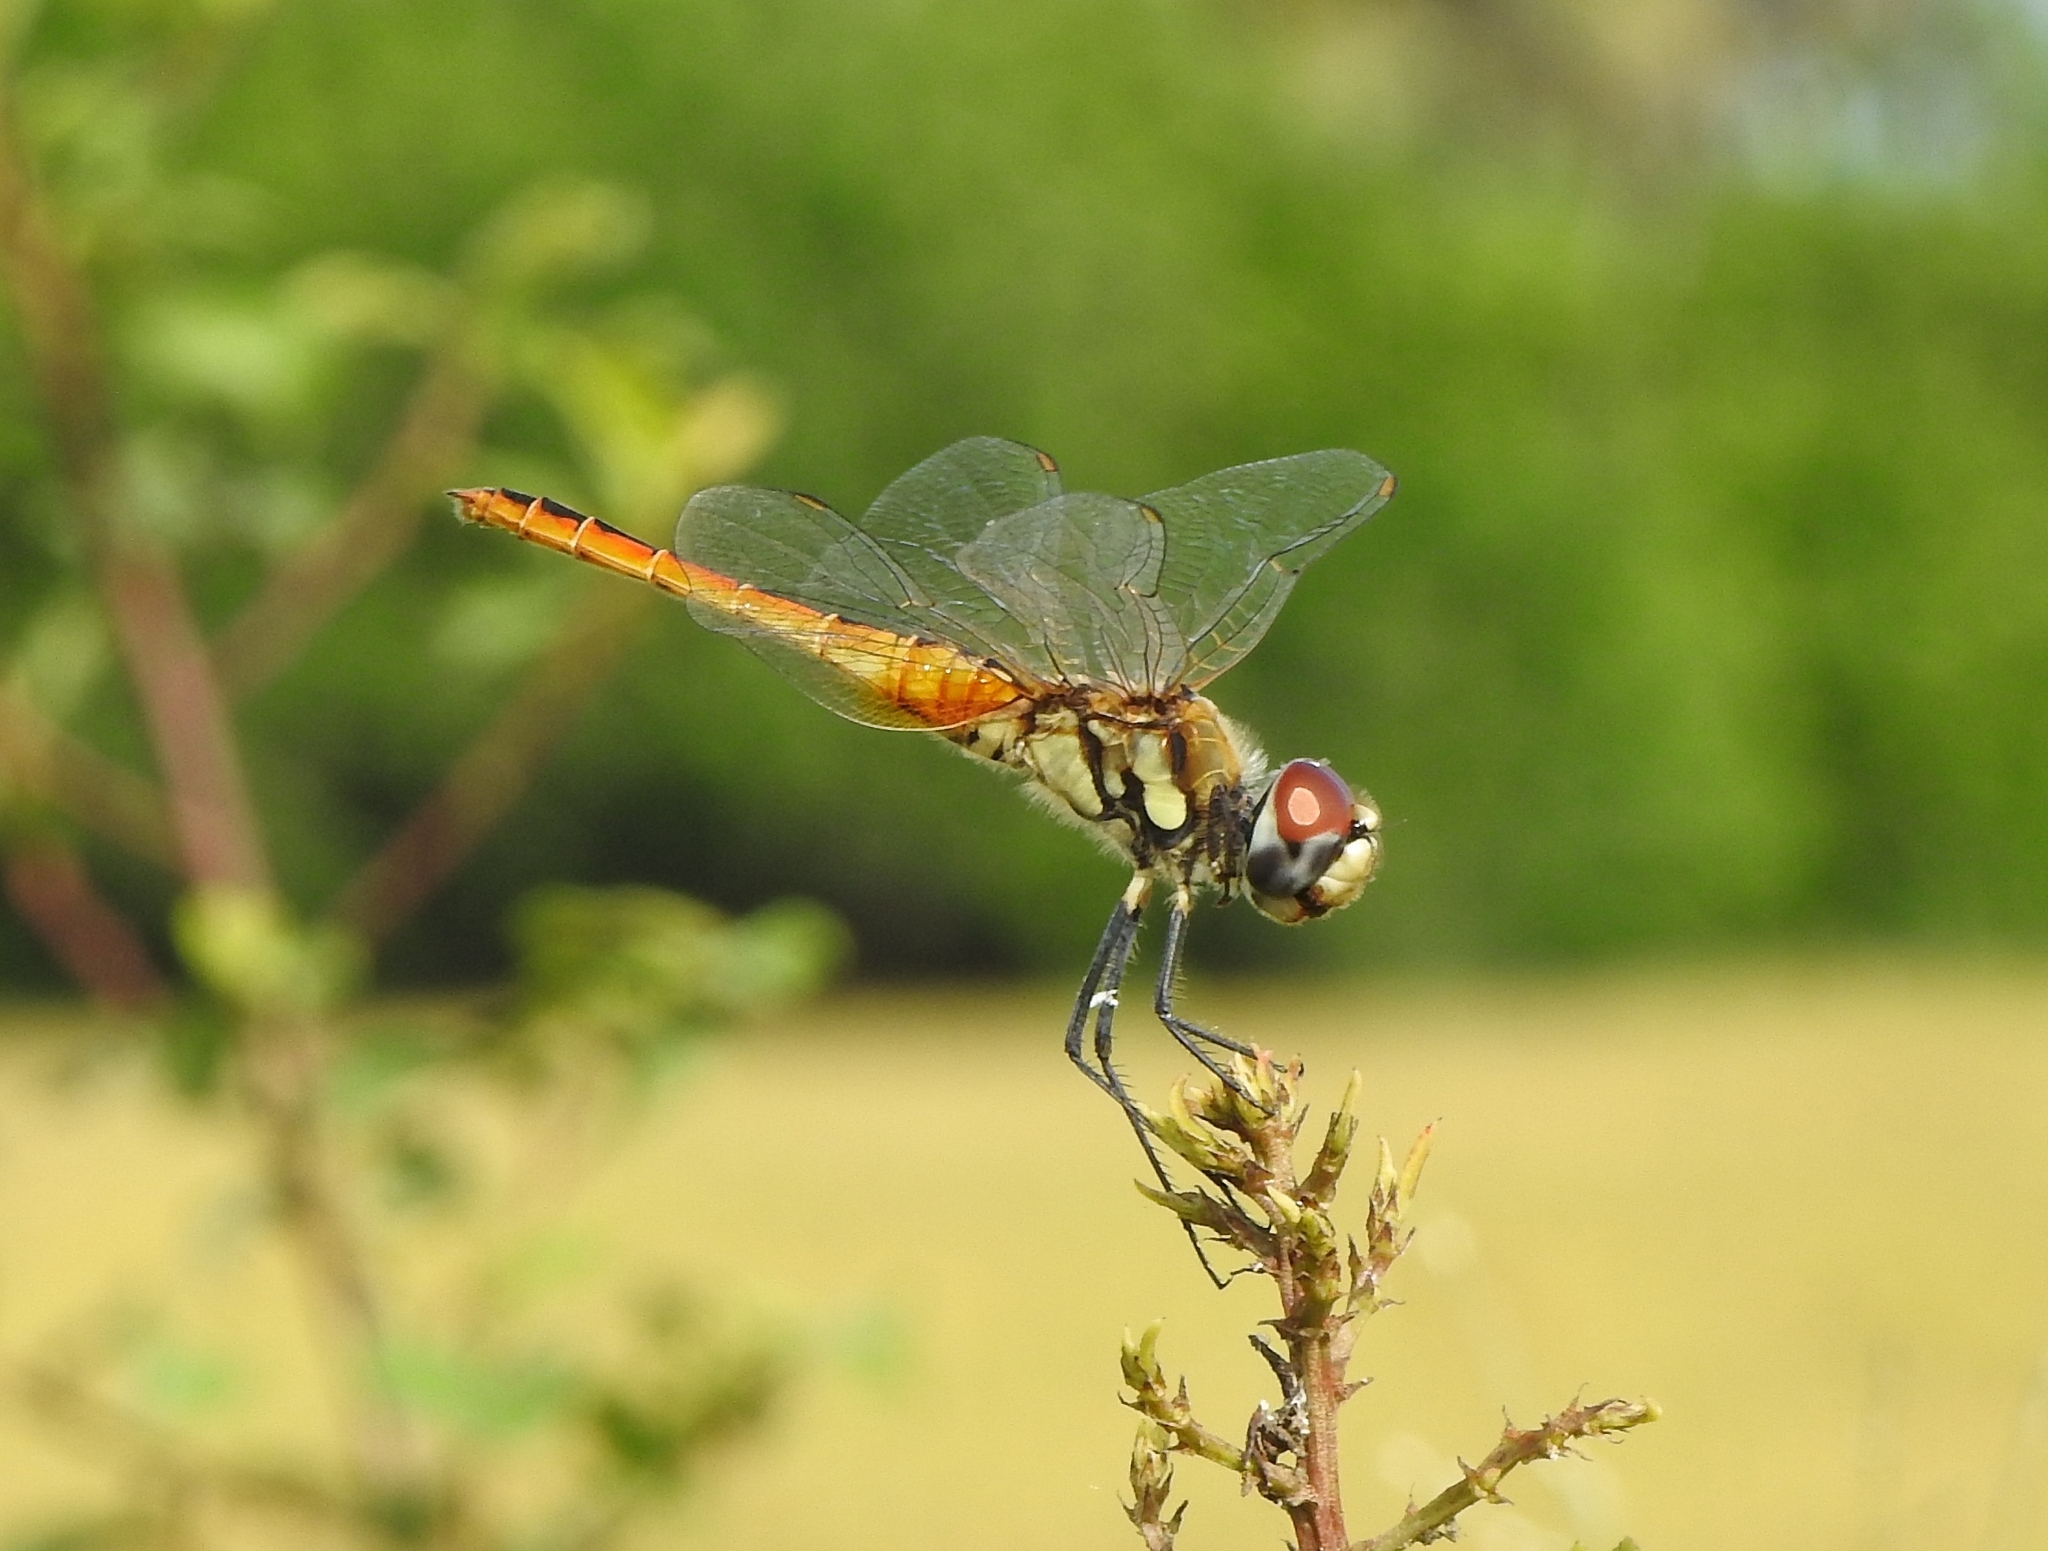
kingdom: Animalia
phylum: Arthropoda
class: Insecta
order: Odonata
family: Libellulidae
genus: Macrodiplax
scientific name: Macrodiplax cora
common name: Coastal glider
